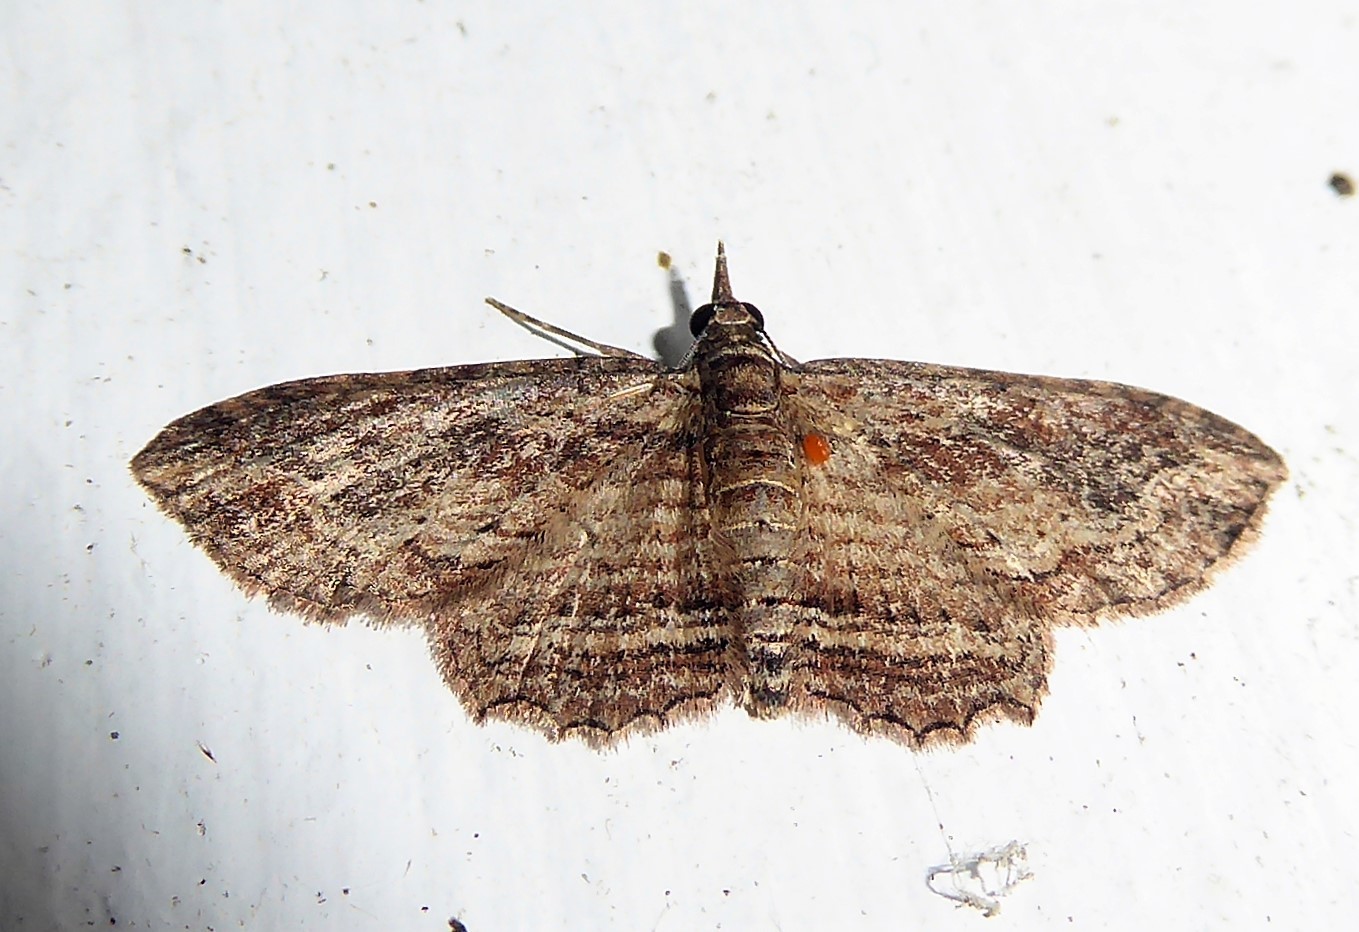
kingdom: Animalia
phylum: Arthropoda
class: Insecta
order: Lepidoptera
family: Geometridae
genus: Chloroclystis
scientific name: Chloroclystis filata
